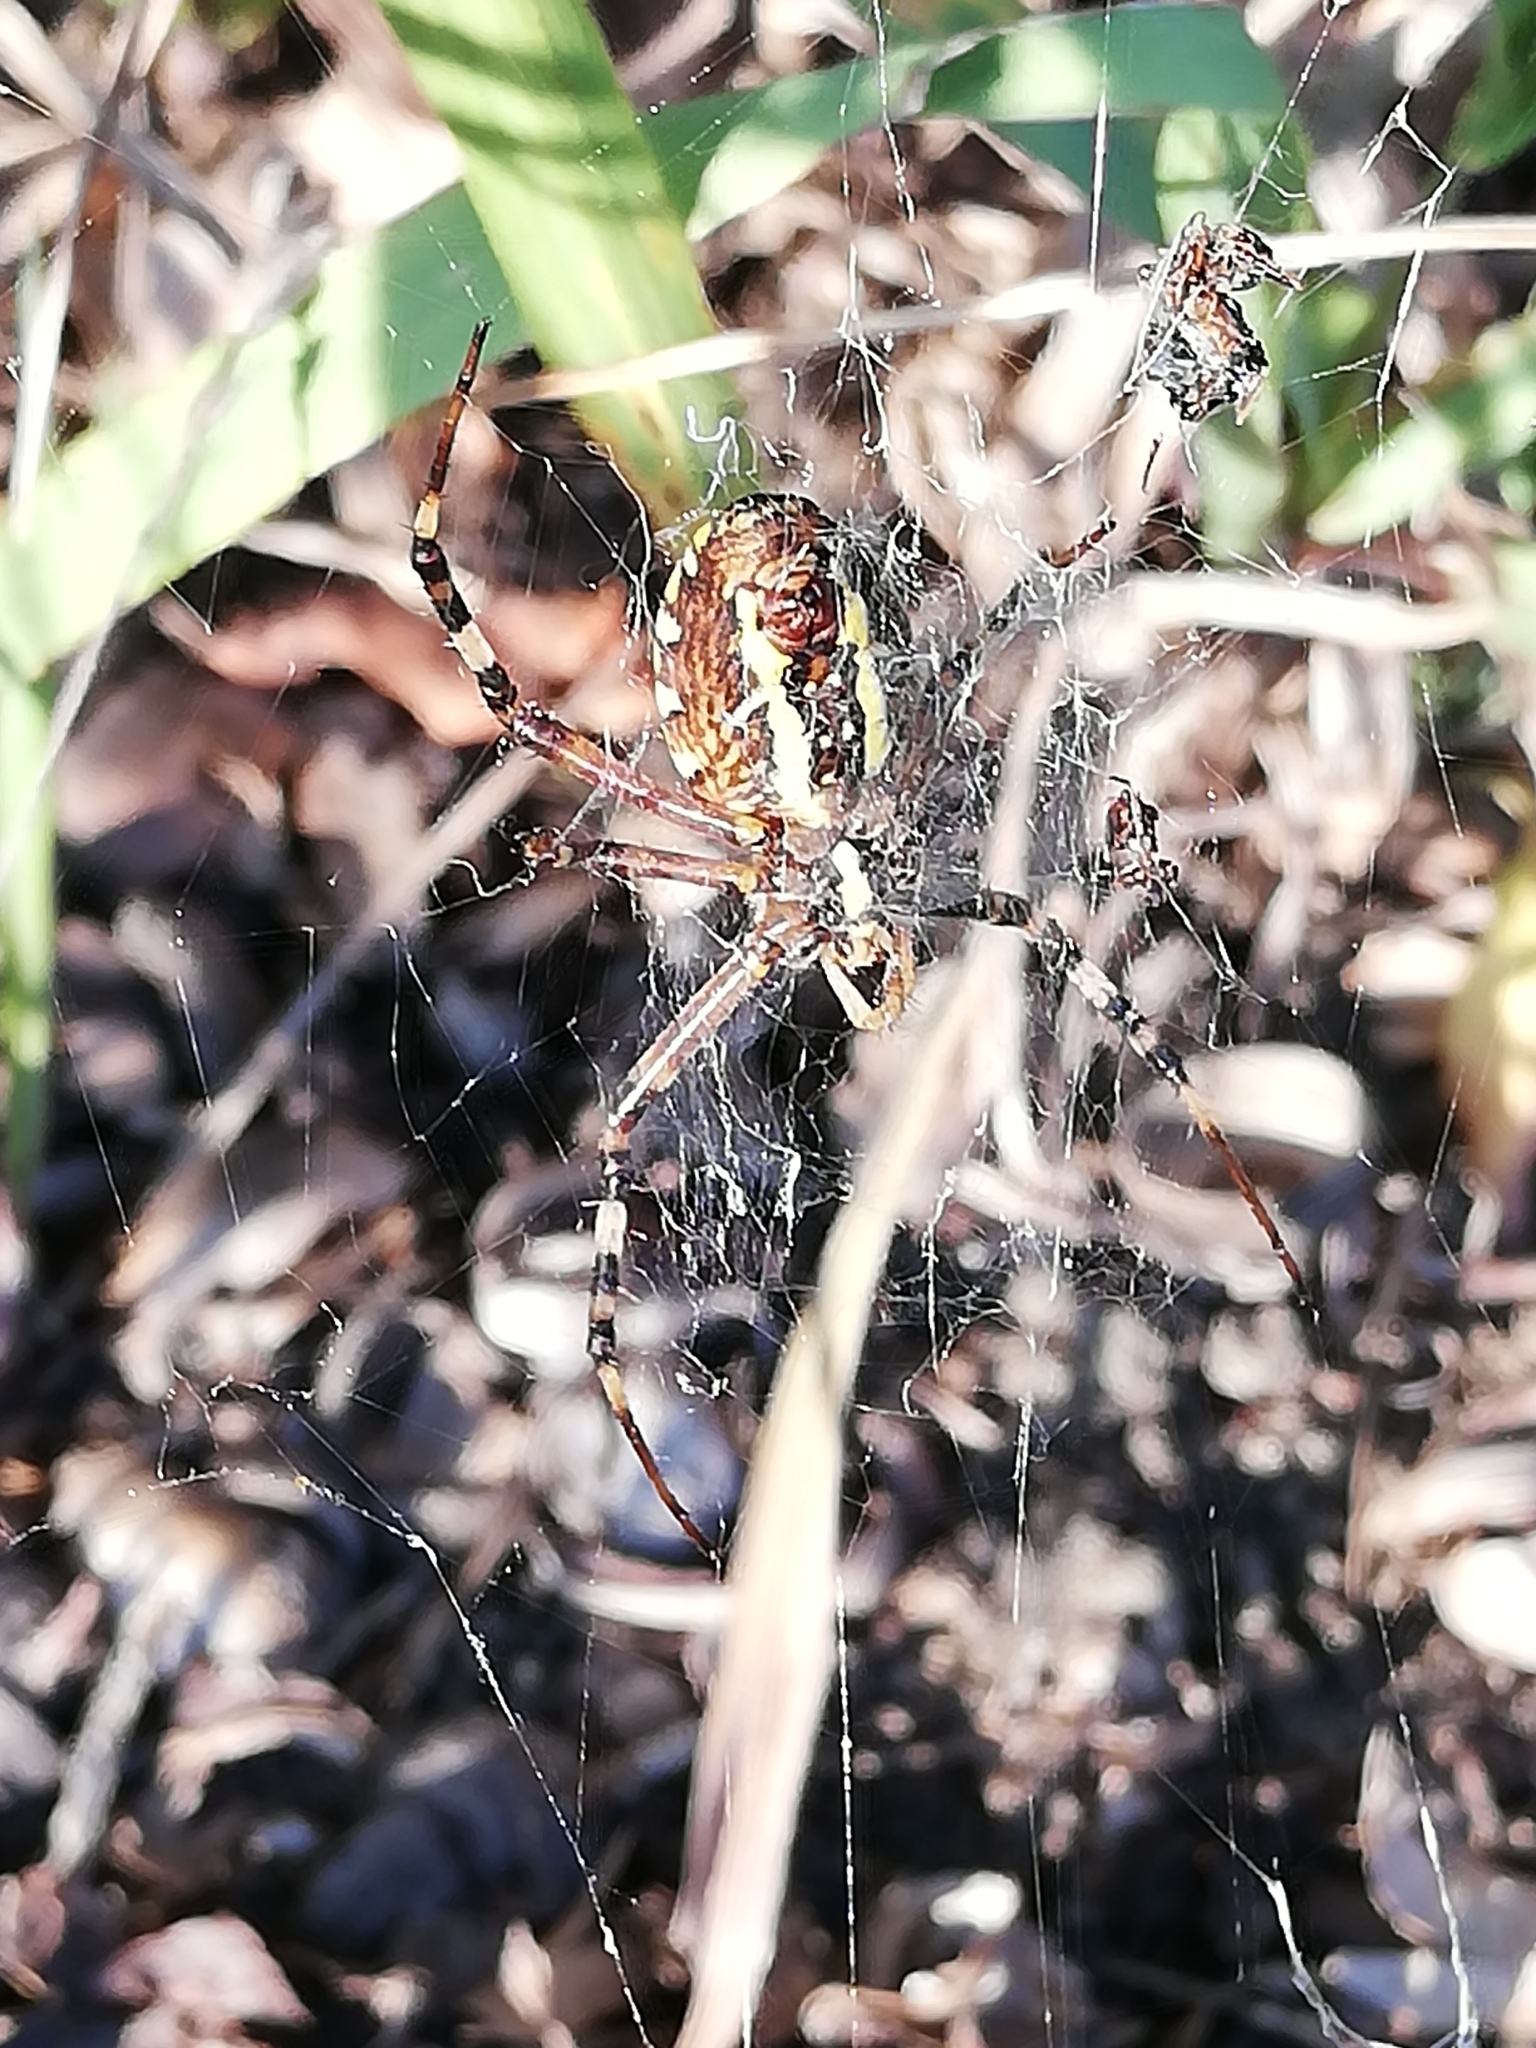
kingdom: Animalia
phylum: Arthropoda
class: Arachnida
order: Araneae
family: Araneidae
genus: Argiope
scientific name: Argiope bruennichi
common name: Wasp spider
